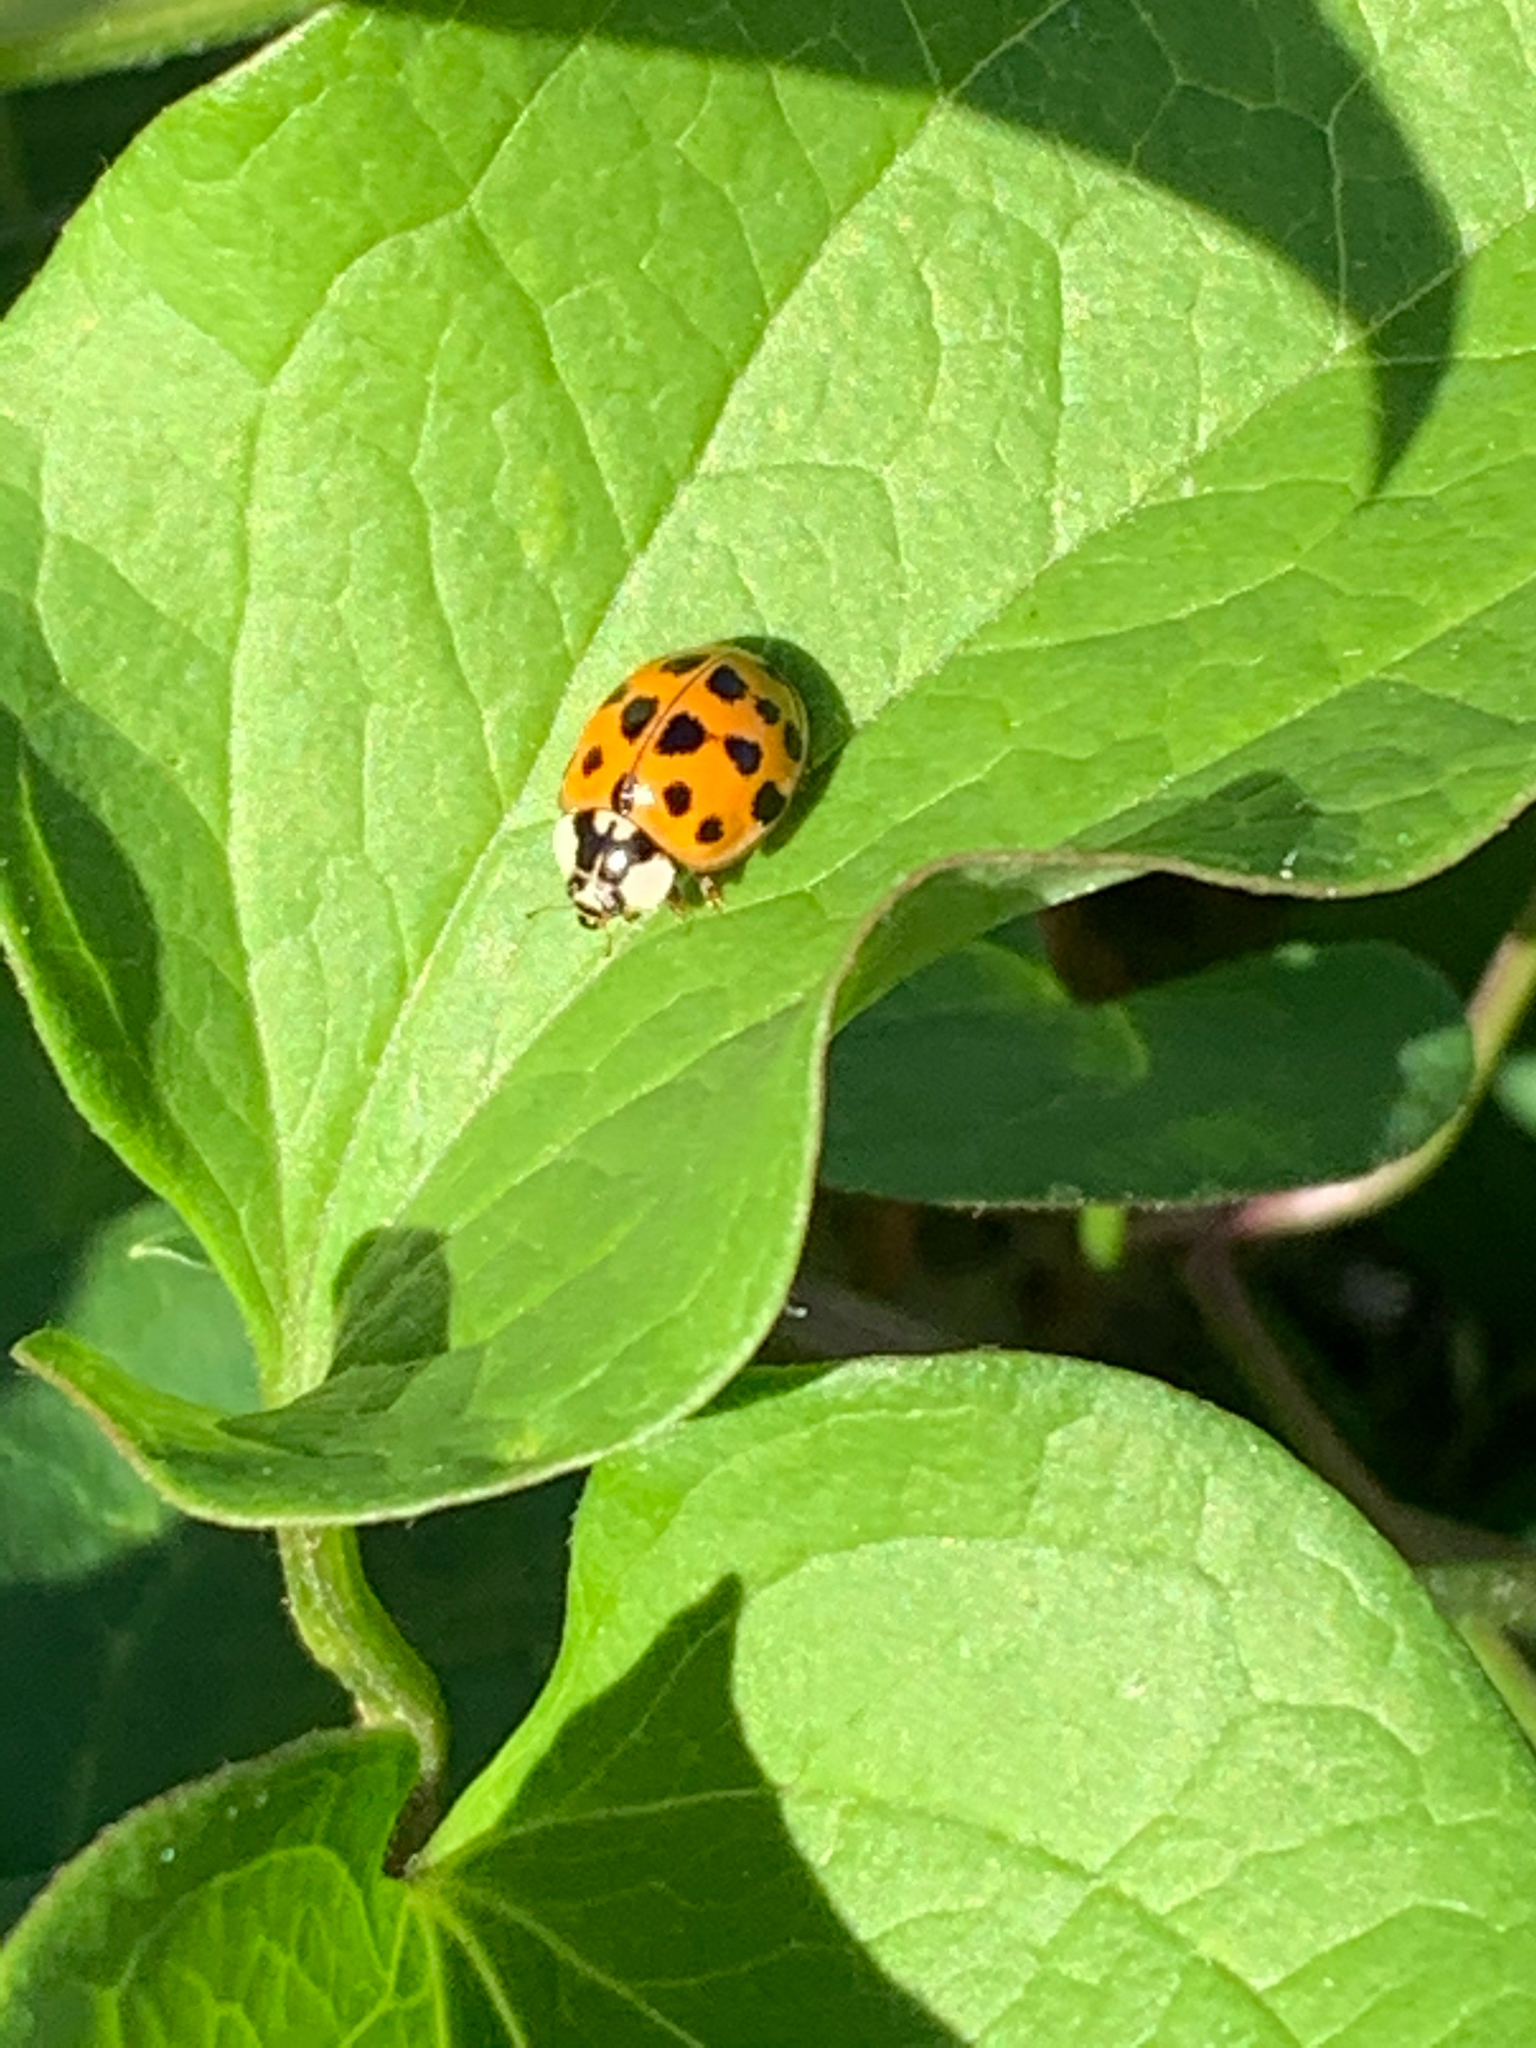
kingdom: Animalia
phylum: Arthropoda
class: Insecta
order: Coleoptera
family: Coccinellidae
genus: Harmonia
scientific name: Harmonia axyridis
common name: Harlequin ladybird
